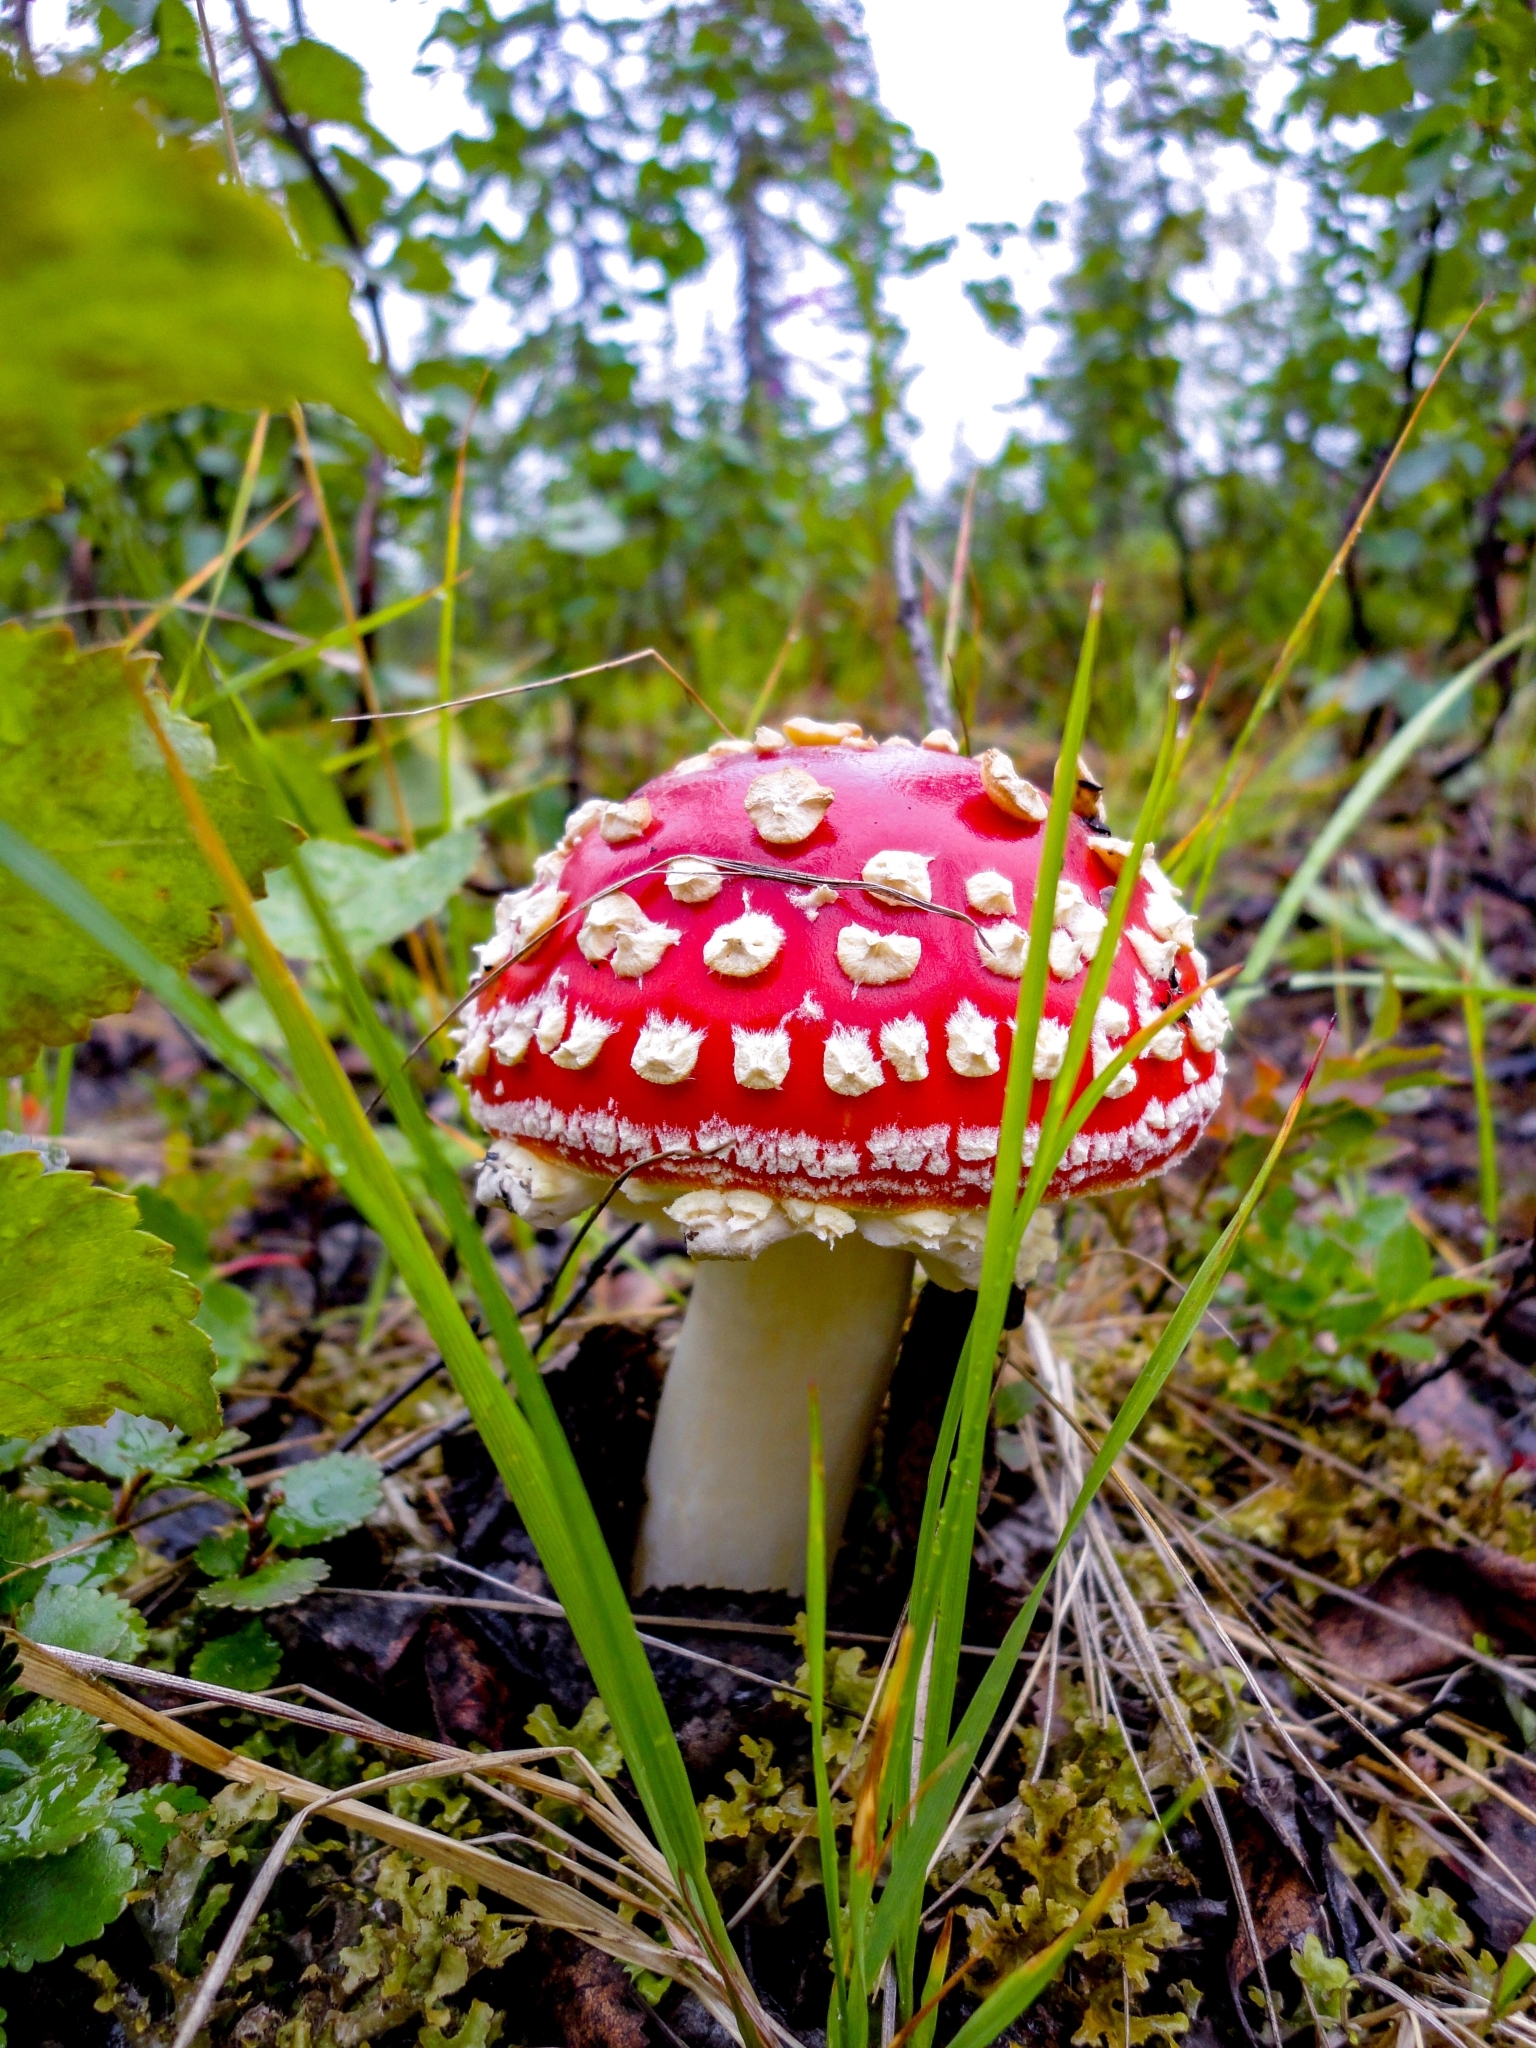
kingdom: Fungi
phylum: Basidiomycota
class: Agaricomycetes
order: Agaricales
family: Amanitaceae
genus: Amanita
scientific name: Amanita muscaria
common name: Fly agaric
